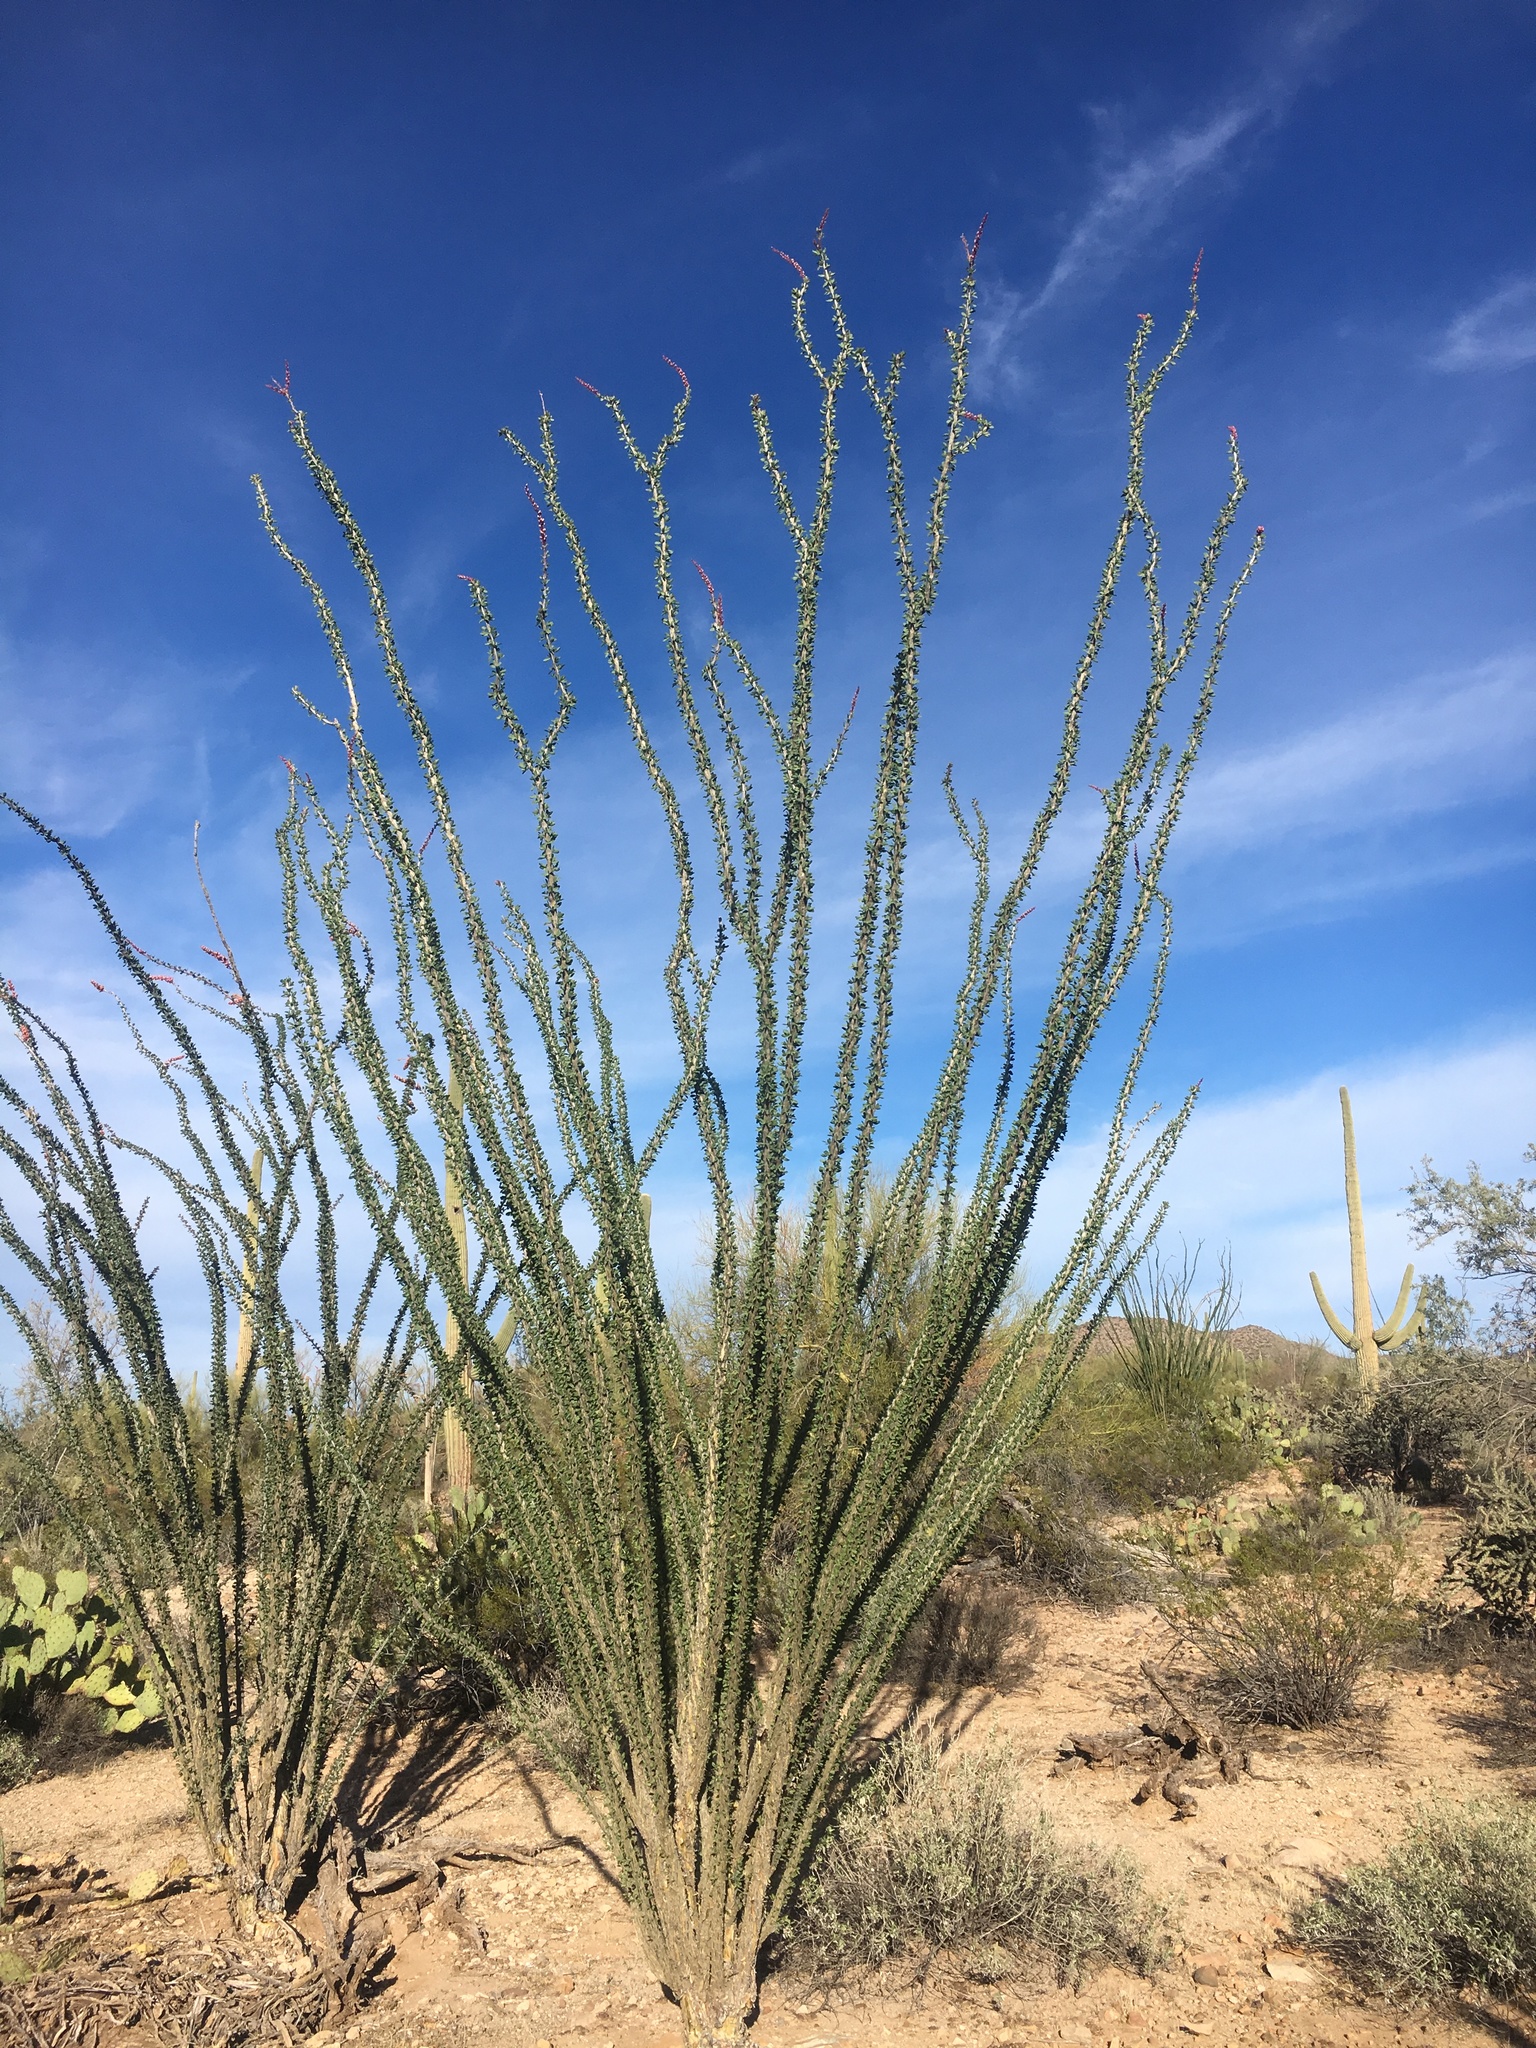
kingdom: Plantae
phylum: Tracheophyta
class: Magnoliopsida
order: Ericales
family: Fouquieriaceae
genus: Fouquieria
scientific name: Fouquieria splendens
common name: Vine-cactus
